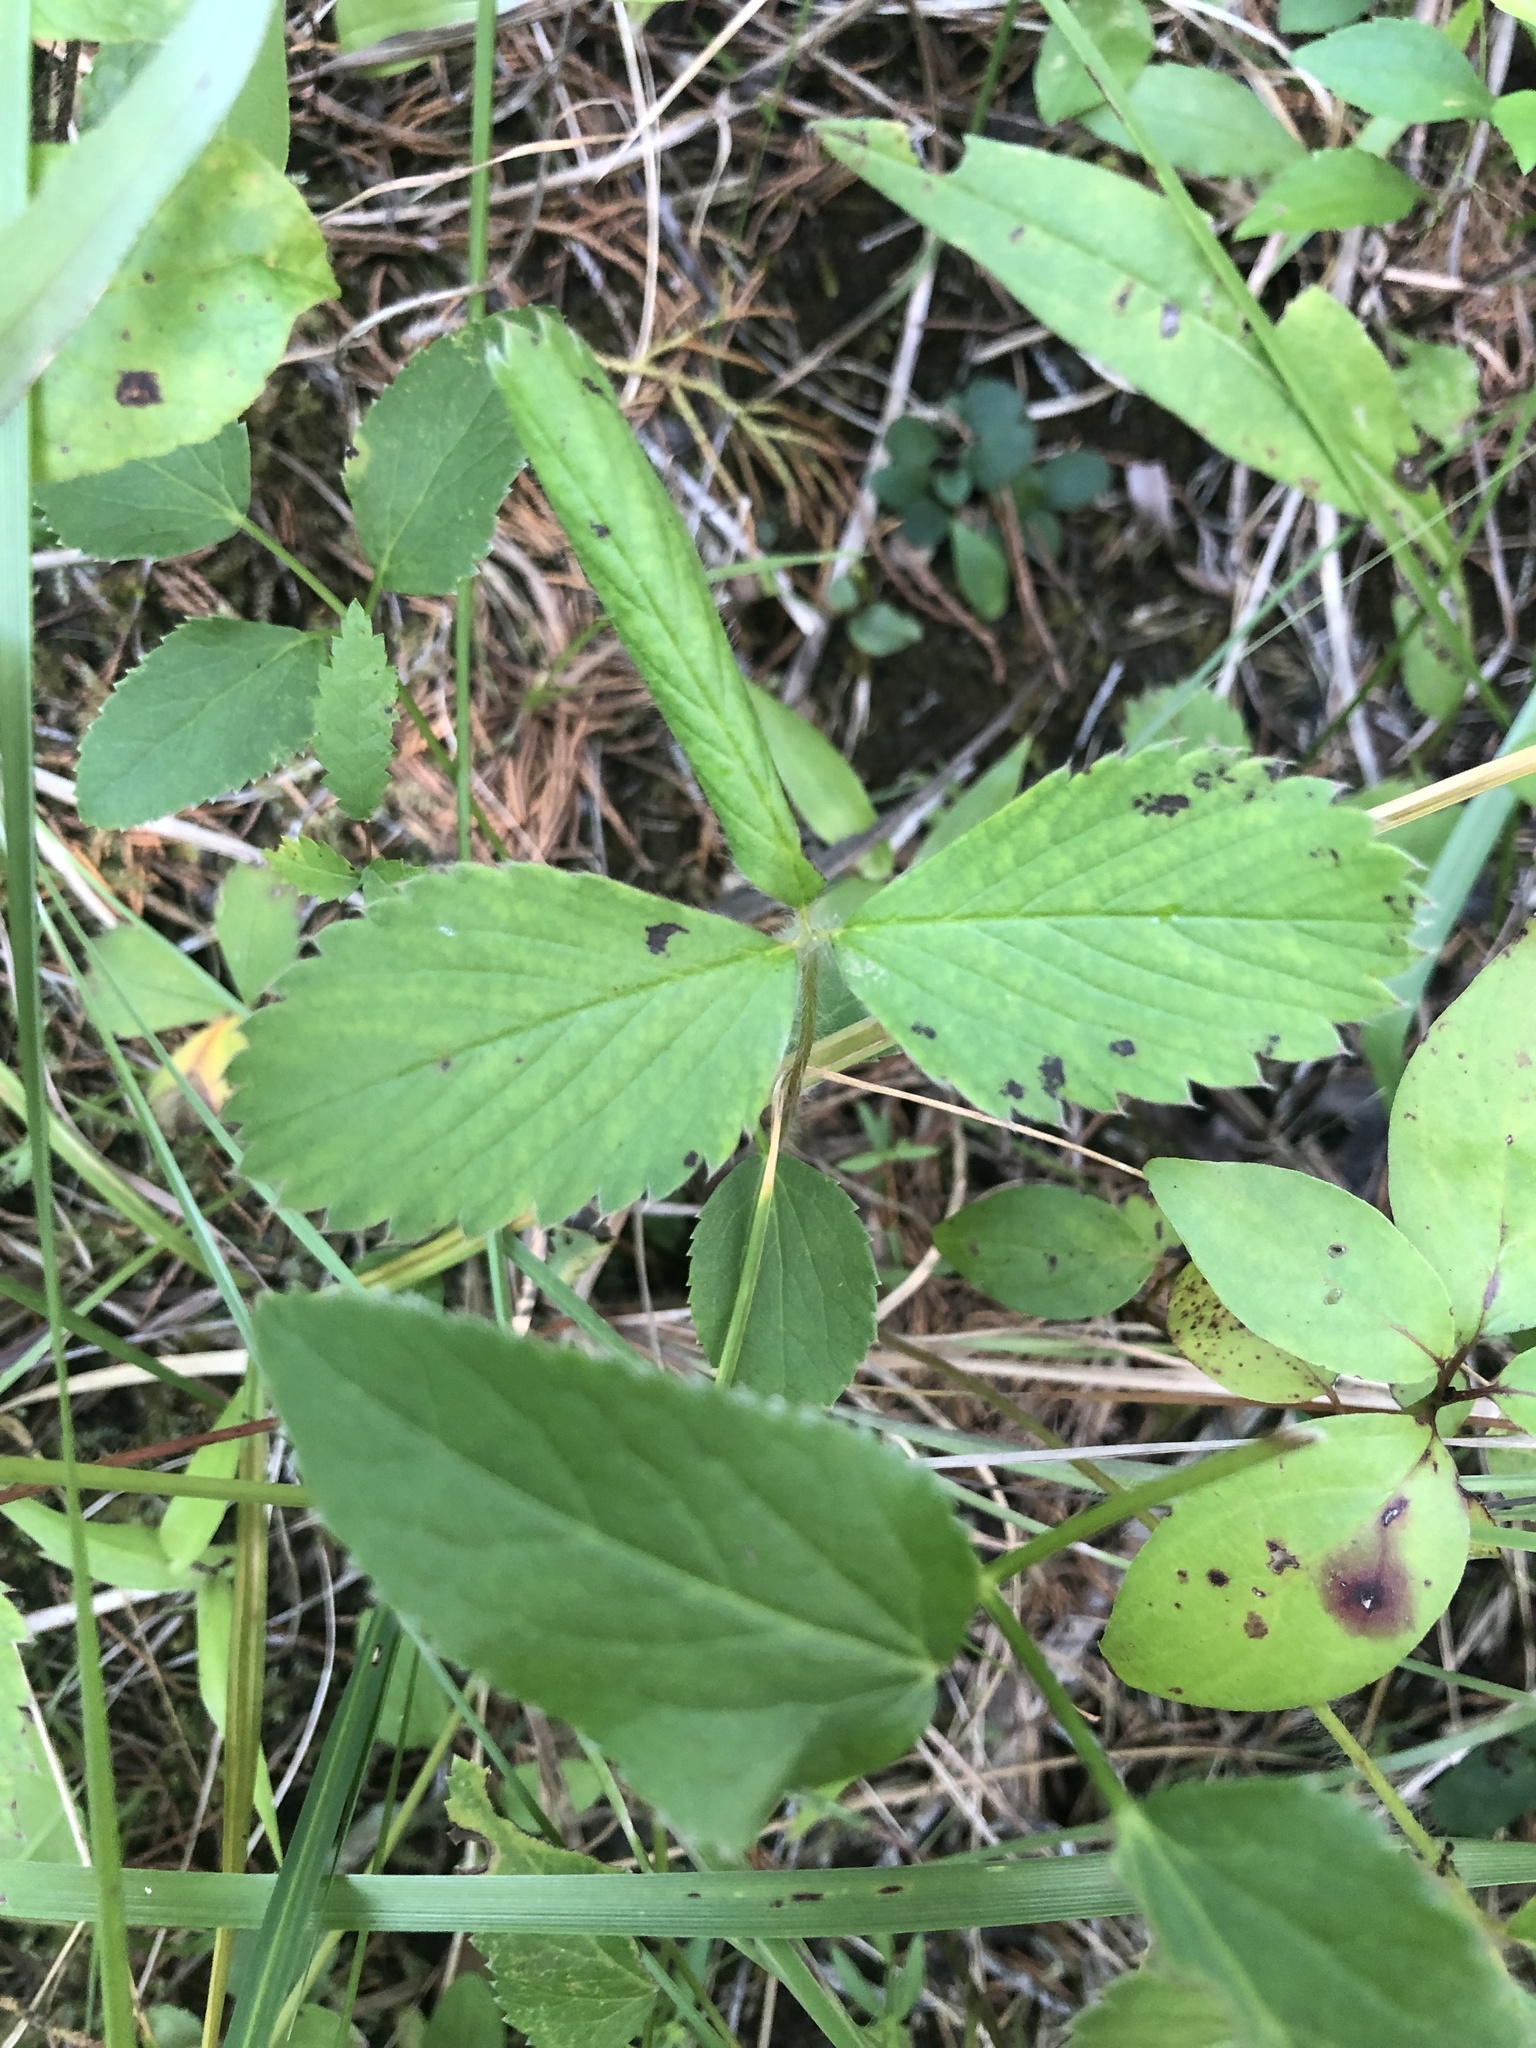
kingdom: Plantae
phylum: Tracheophyta
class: Magnoliopsida
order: Rosales
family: Rosaceae
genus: Fragaria
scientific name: Fragaria virginiana
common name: Thickleaved wild strawberry
